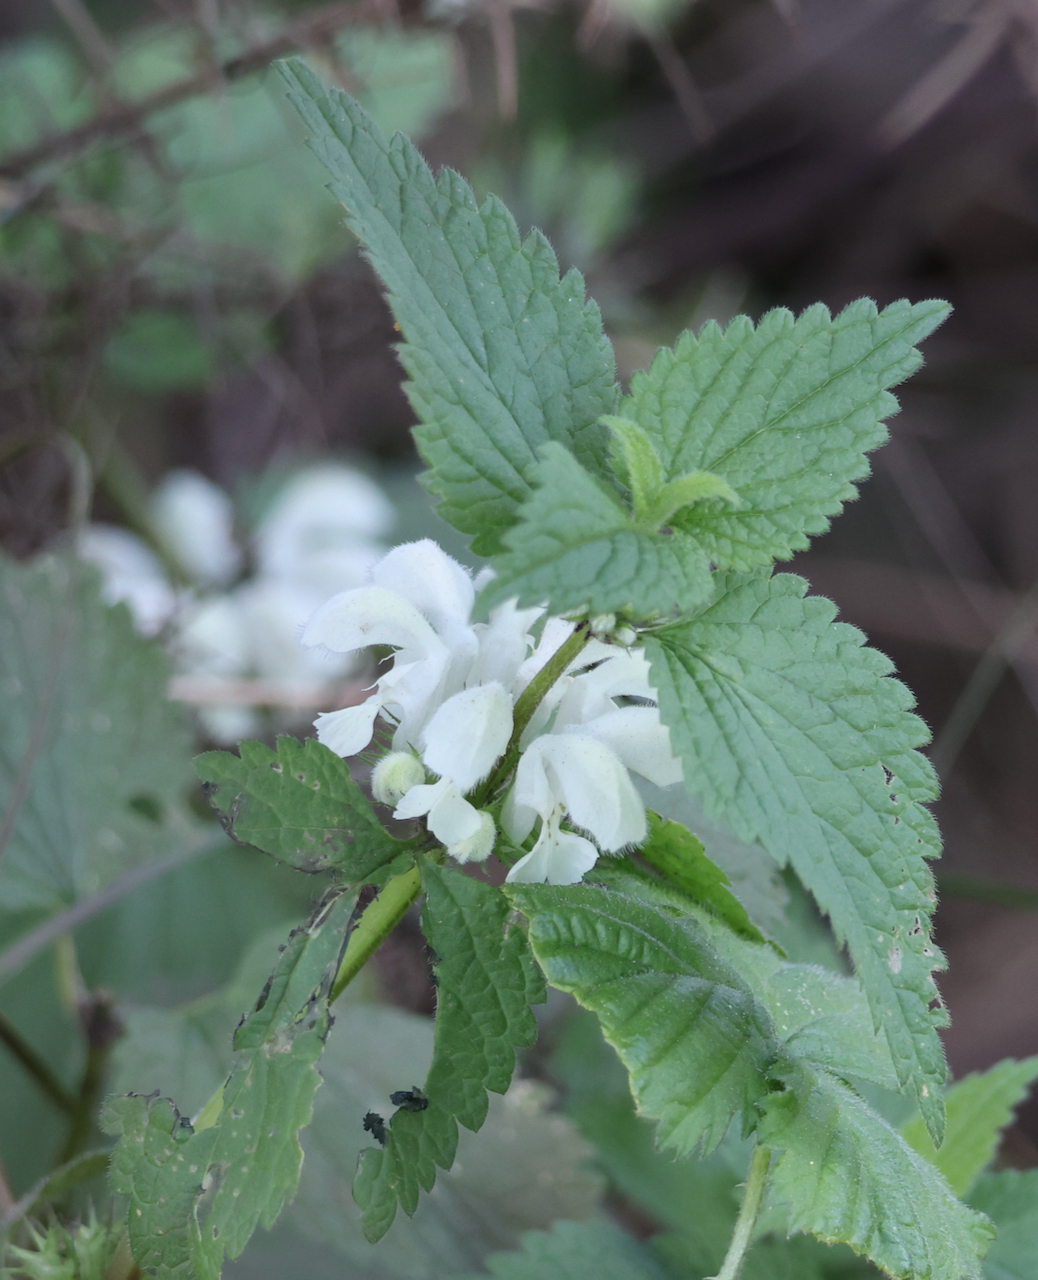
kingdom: Plantae
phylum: Tracheophyta
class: Magnoliopsida
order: Lamiales
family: Lamiaceae
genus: Lamium
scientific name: Lamium album
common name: White dead-nettle
